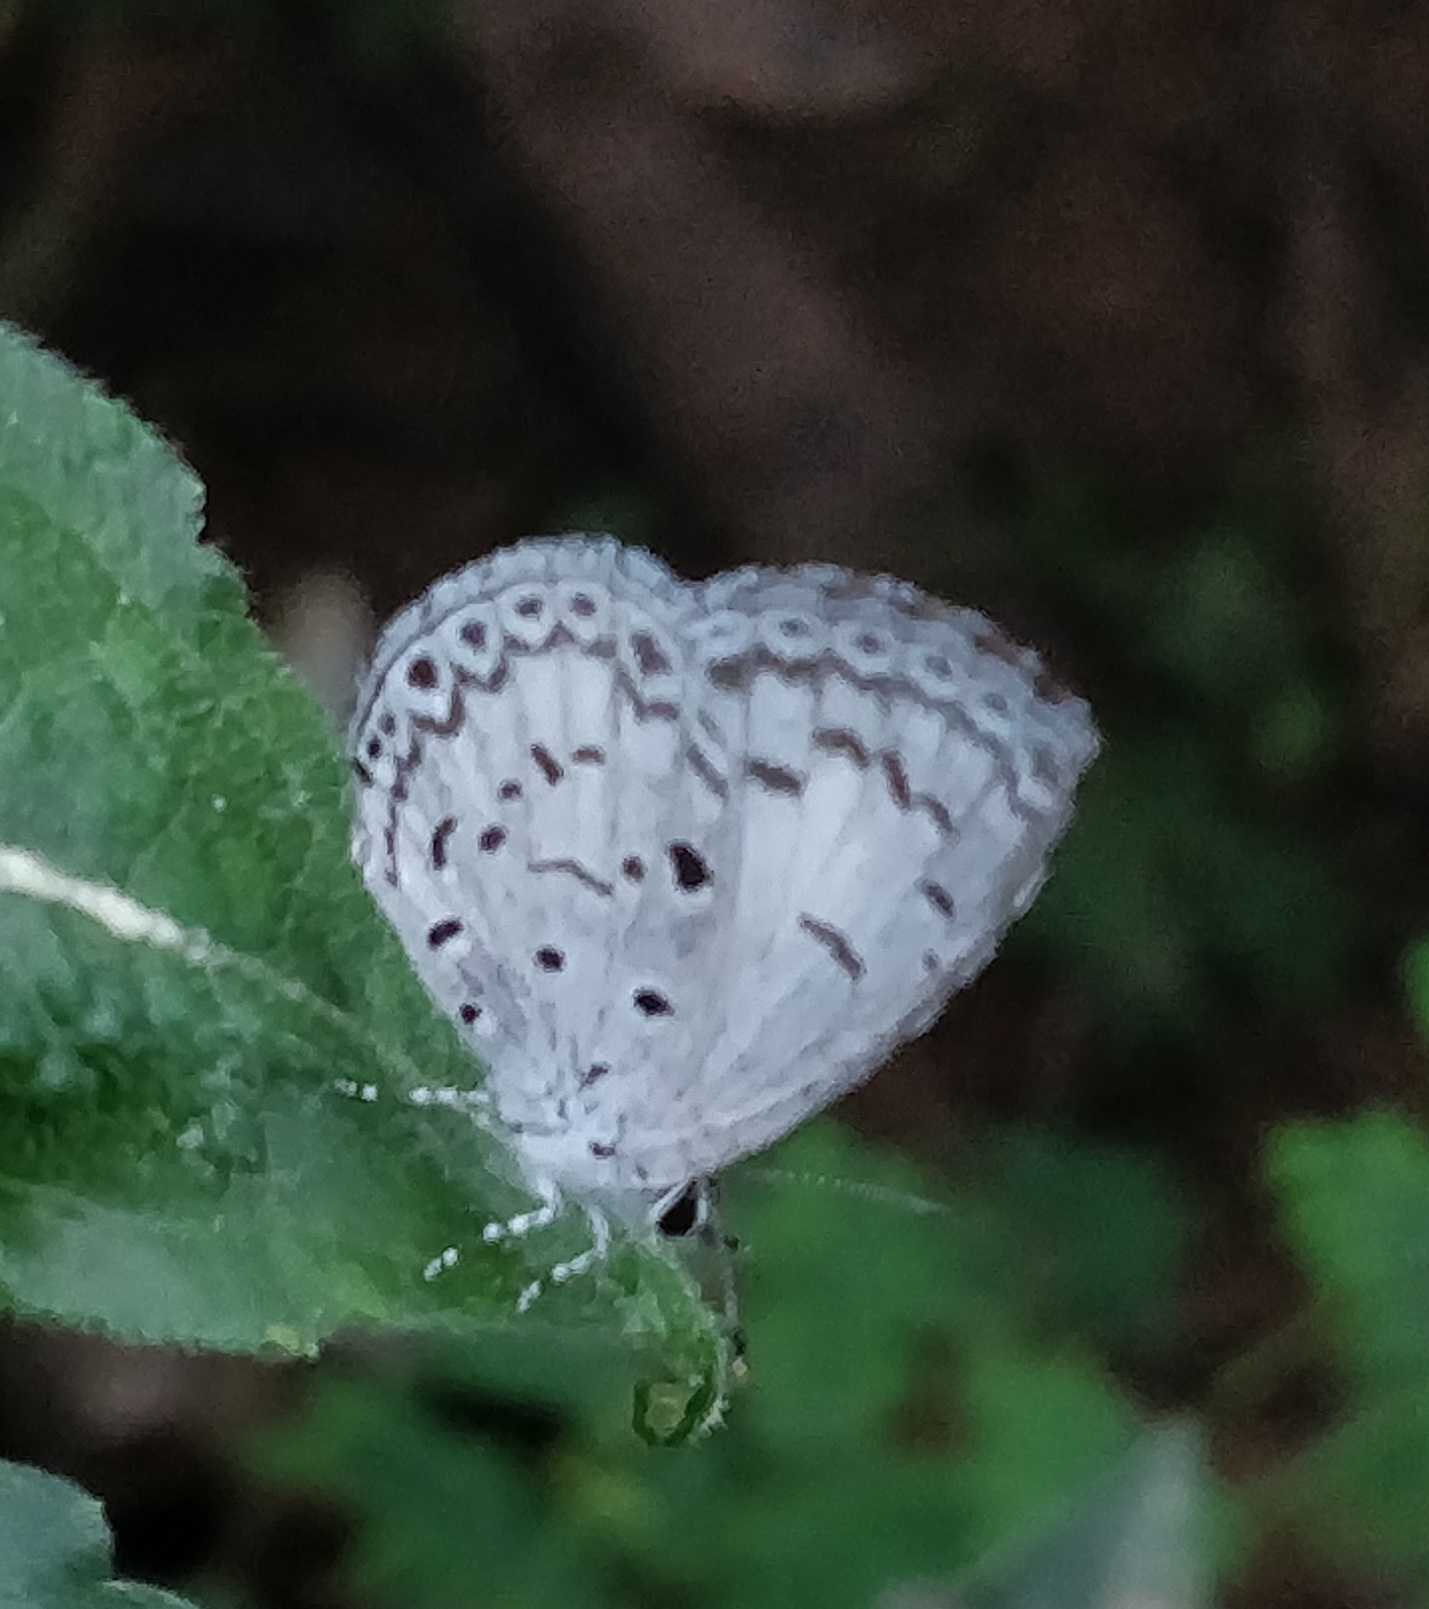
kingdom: Animalia
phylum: Arthropoda
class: Insecta
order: Lepidoptera
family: Lycaenidae
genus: Acytolepis
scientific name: Acytolepis puspa
